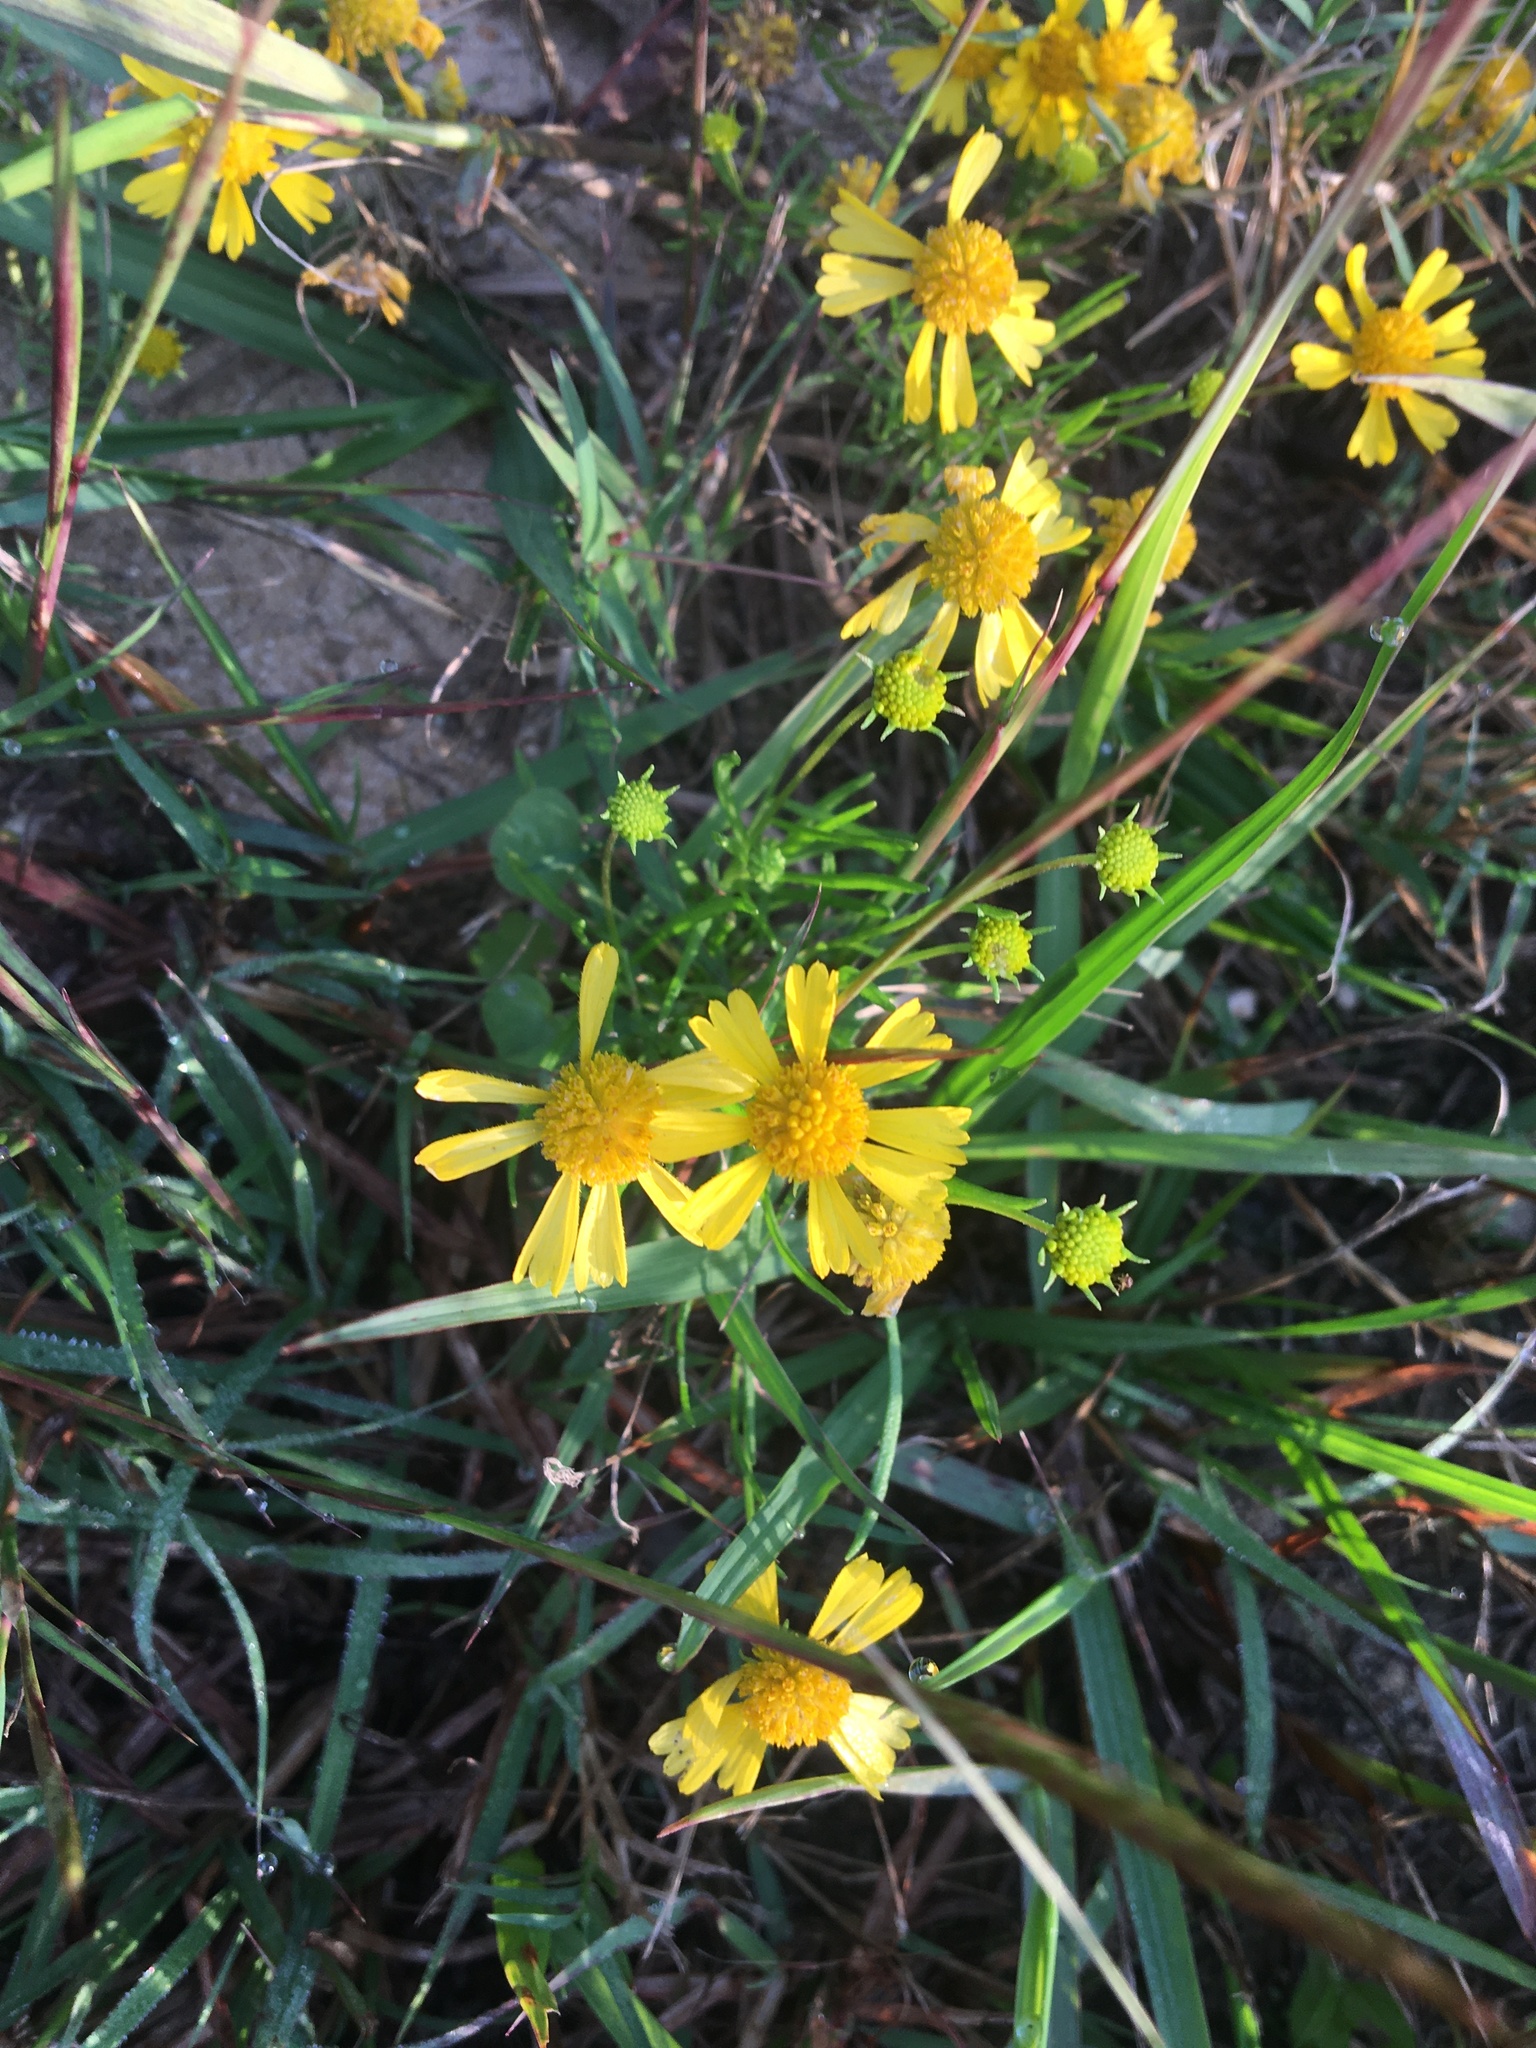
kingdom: Plantae
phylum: Tracheophyta
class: Magnoliopsida
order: Asterales
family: Asteraceae
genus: Helenium
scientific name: Helenium amarum
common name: Bitter sneezeweed
